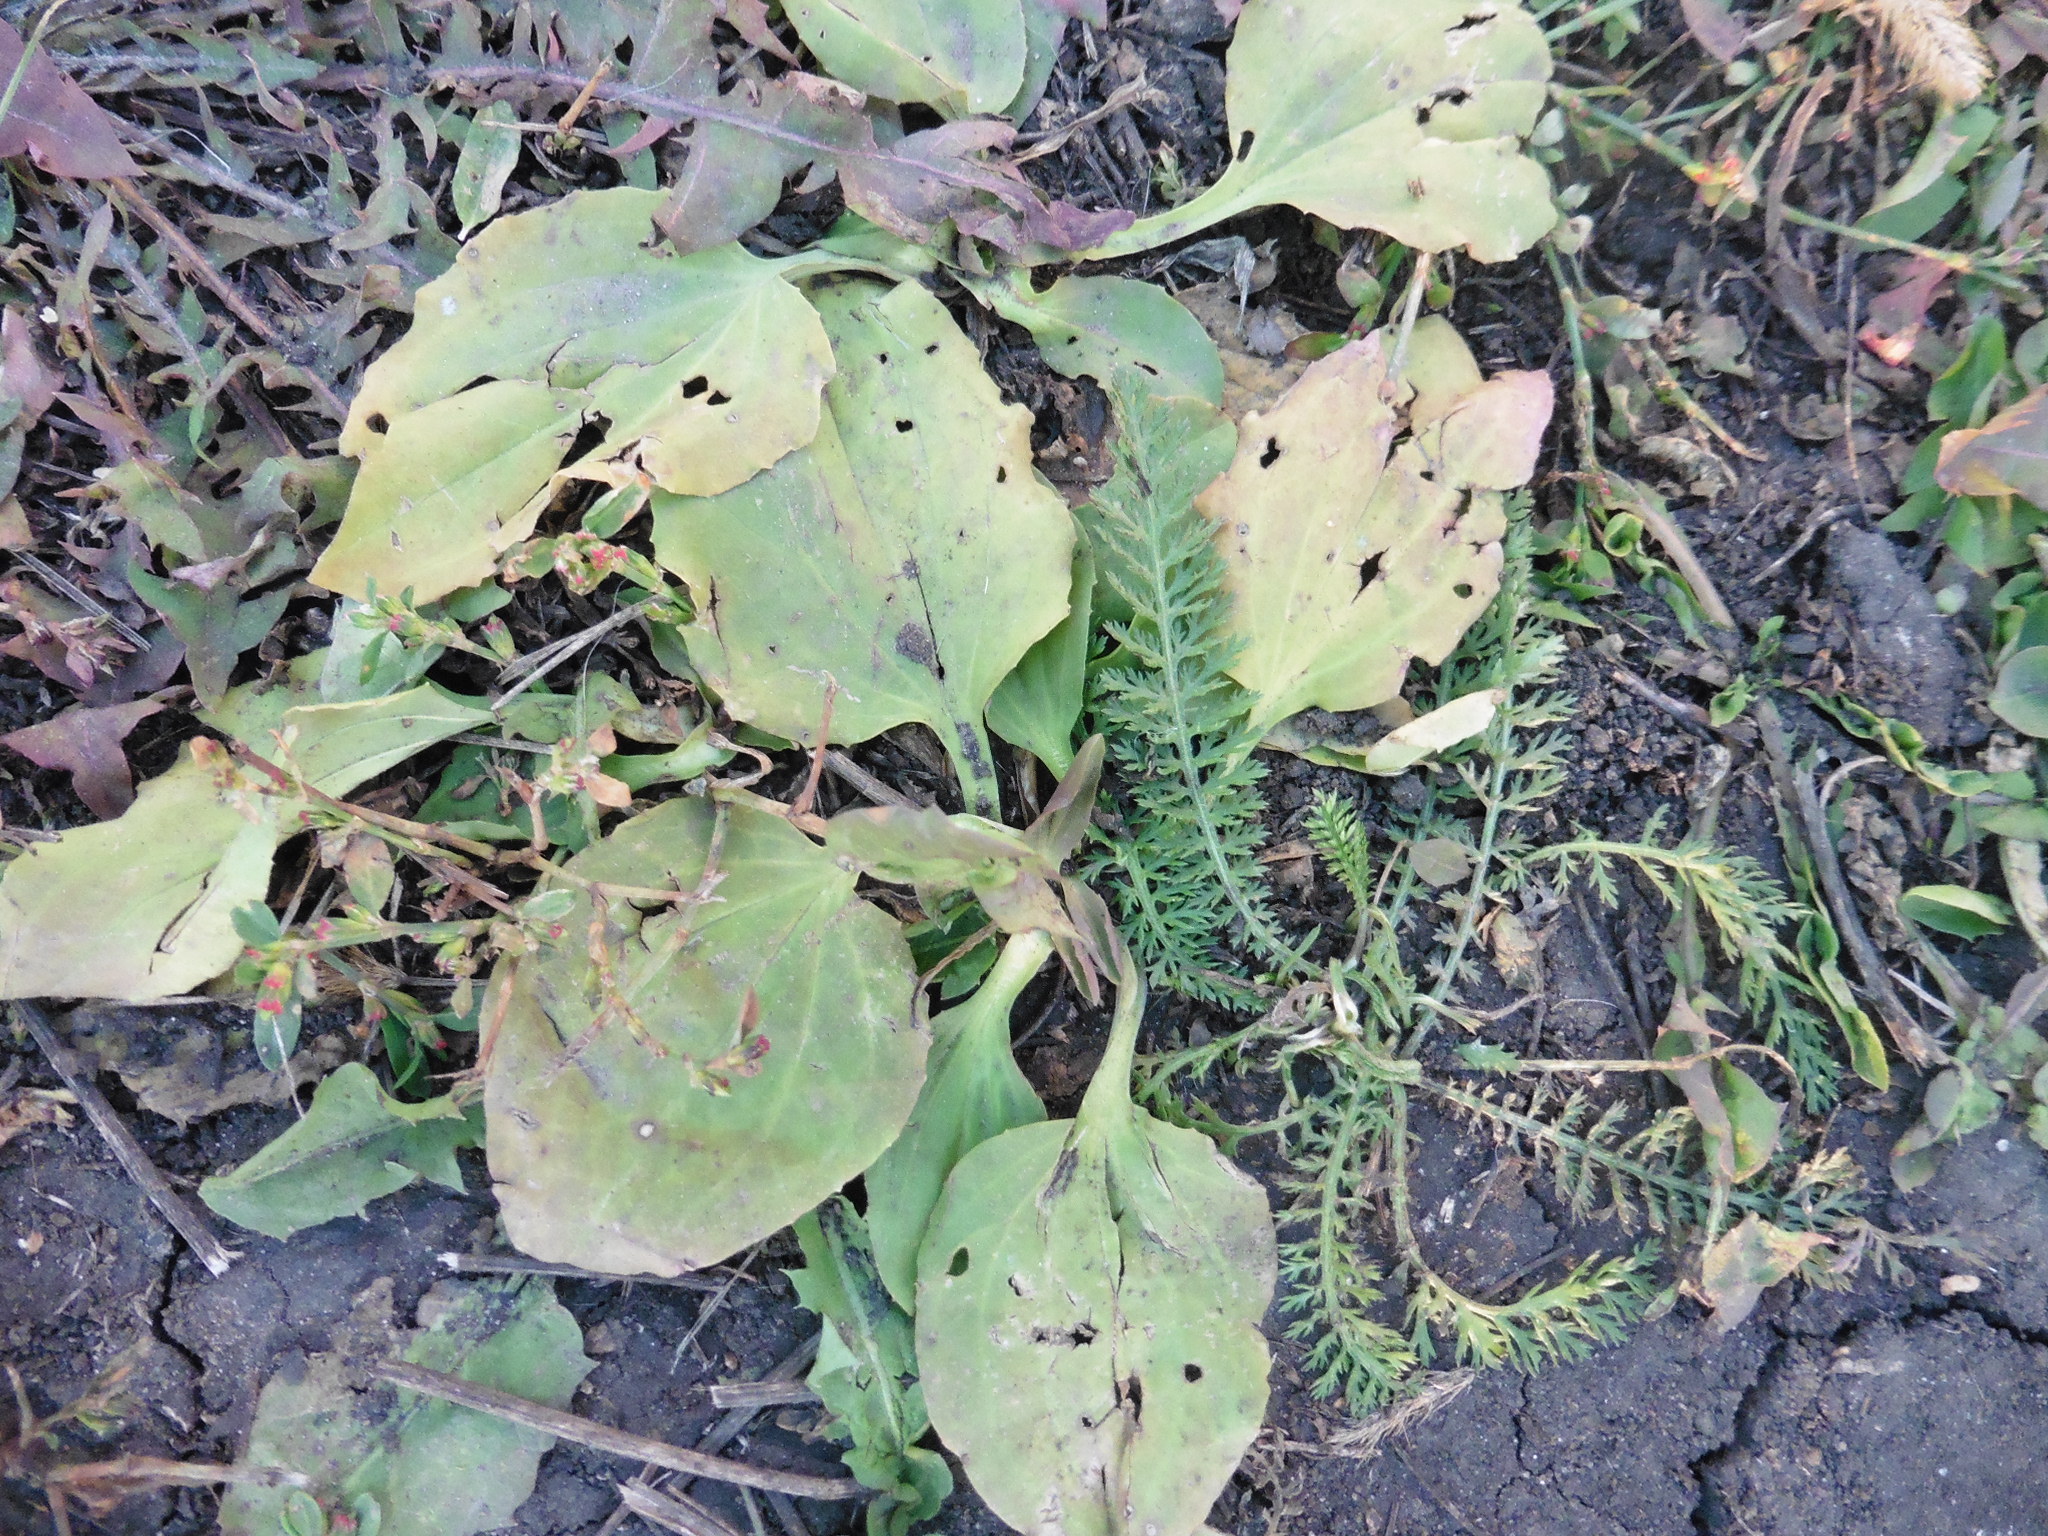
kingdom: Plantae
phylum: Tracheophyta
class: Magnoliopsida
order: Lamiales
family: Plantaginaceae
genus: Plantago
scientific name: Plantago major
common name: Common plantain
